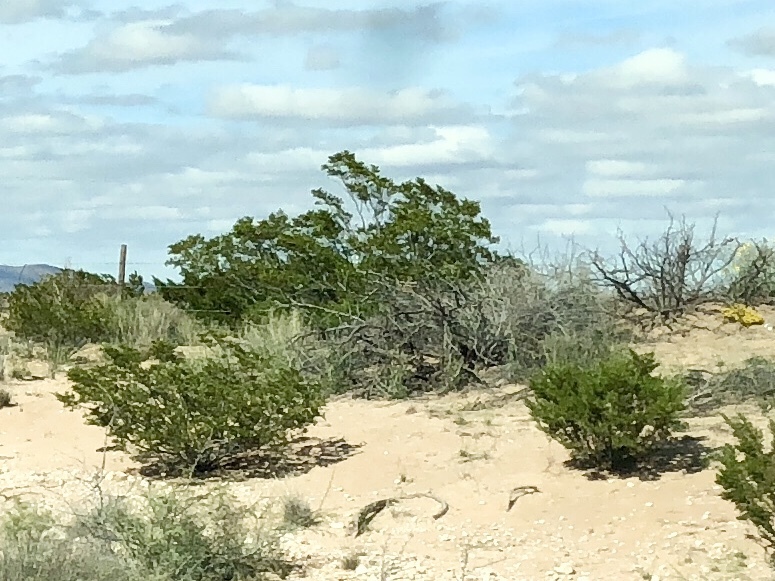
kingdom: Plantae
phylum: Tracheophyta
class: Magnoliopsida
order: Zygophyllales
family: Zygophyllaceae
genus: Larrea
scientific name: Larrea tridentata
